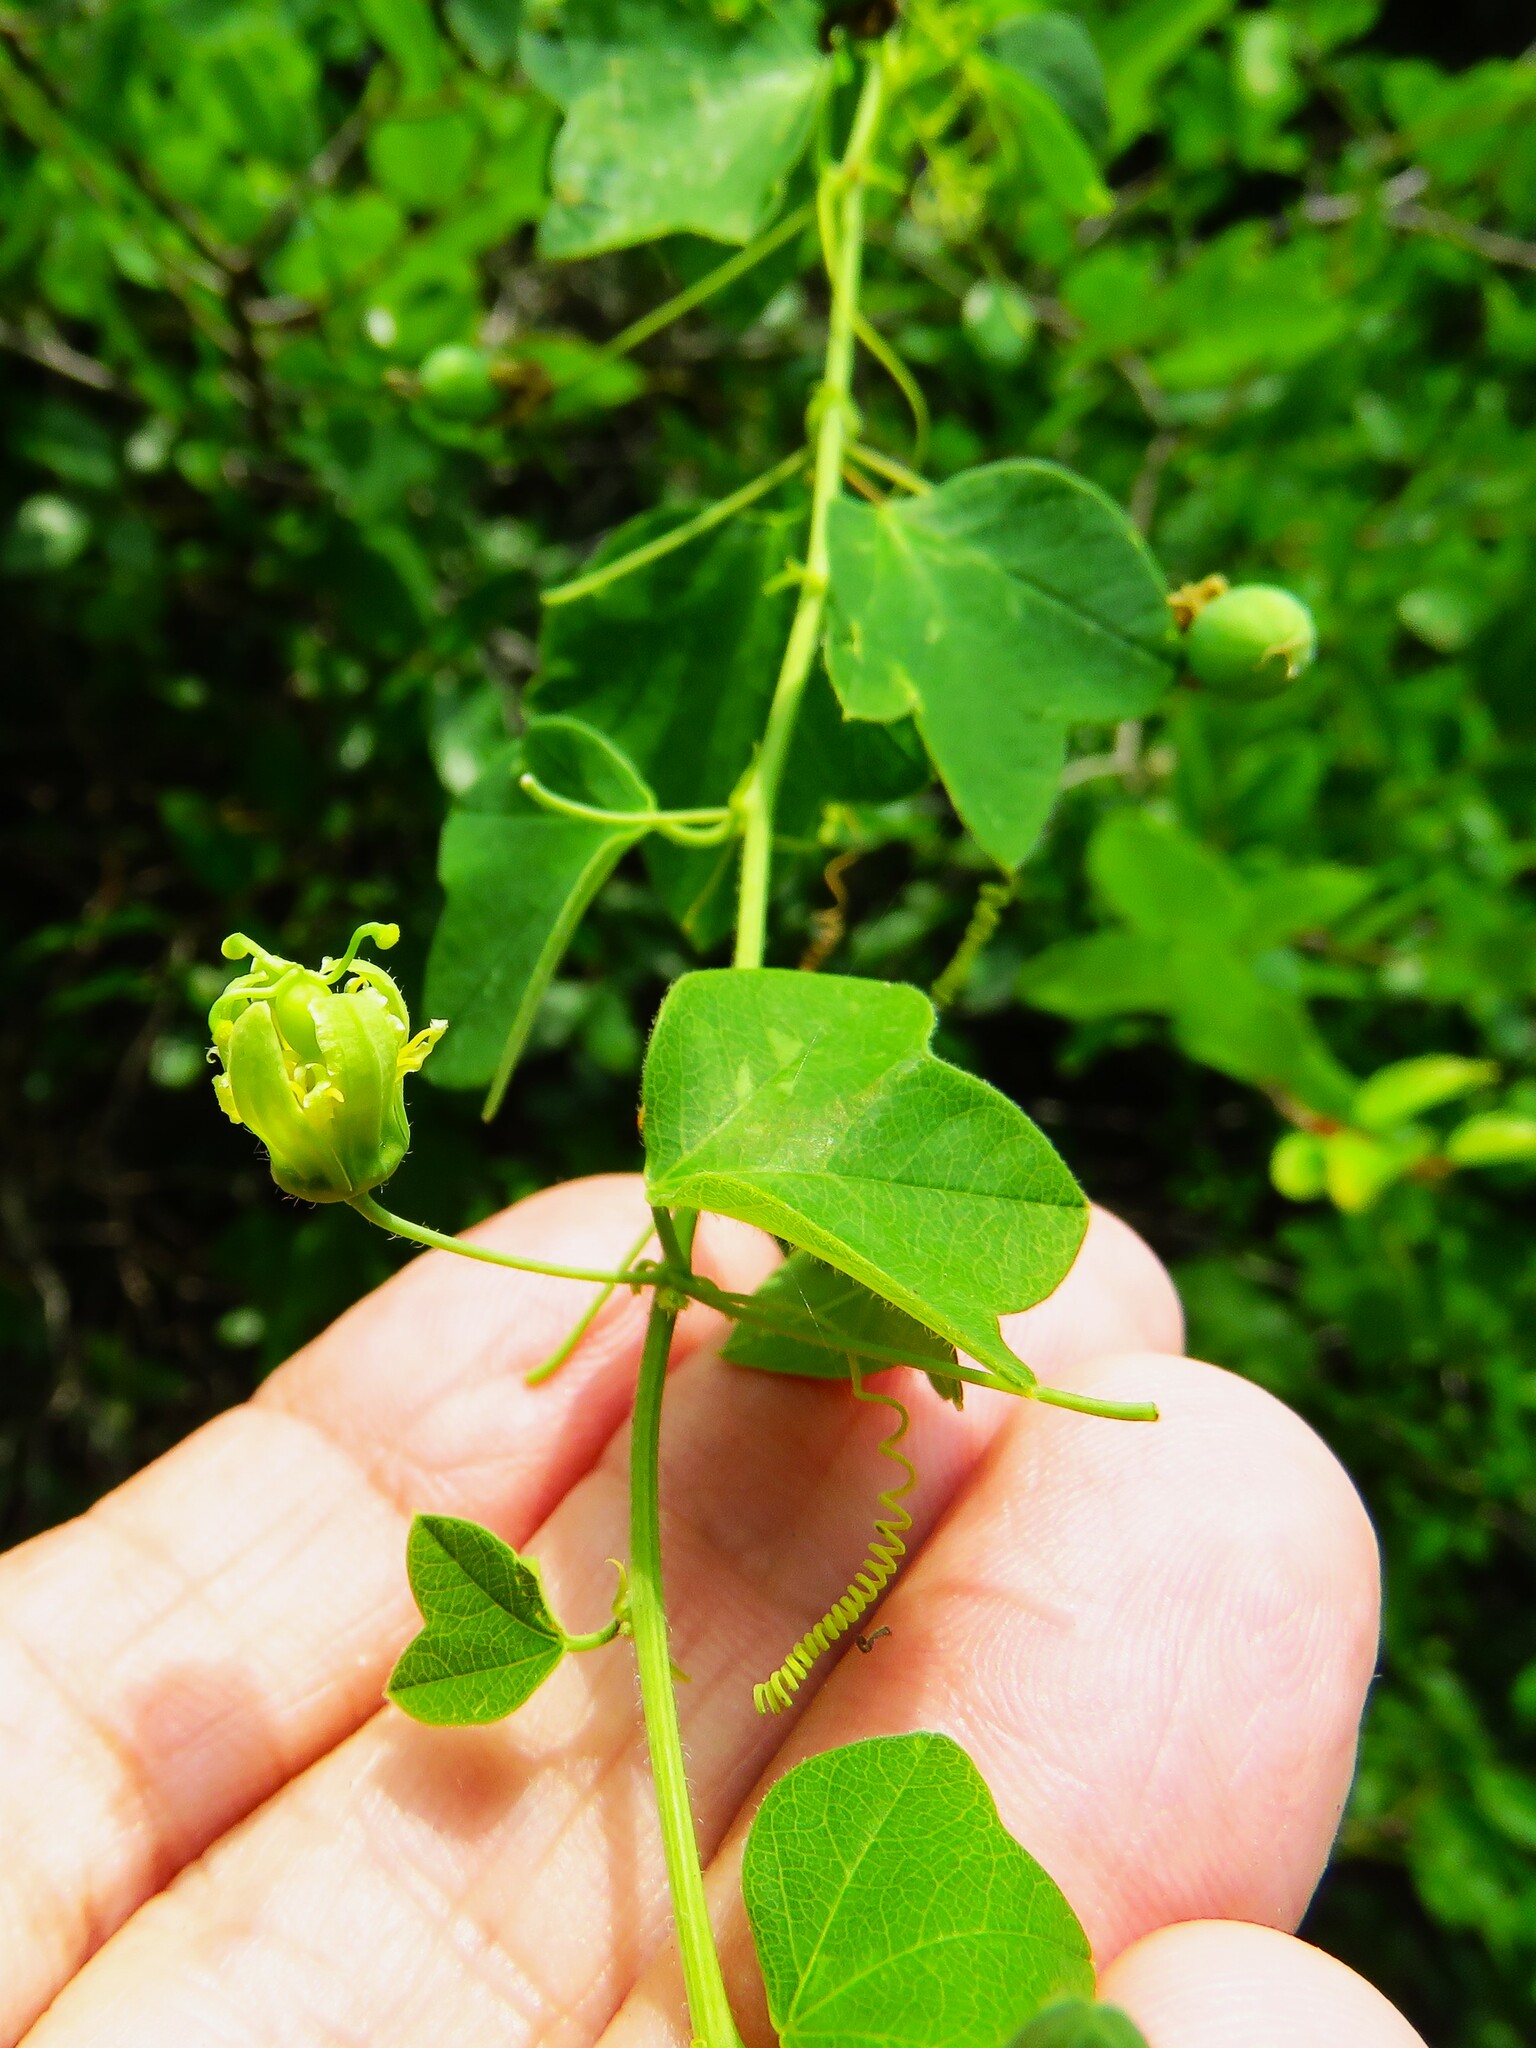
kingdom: Plantae
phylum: Tracheophyta
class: Magnoliopsida
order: Malpighiales
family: Passifloraceae
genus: Passiflora
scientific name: Passiflora lutea
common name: Yellow passionflower
